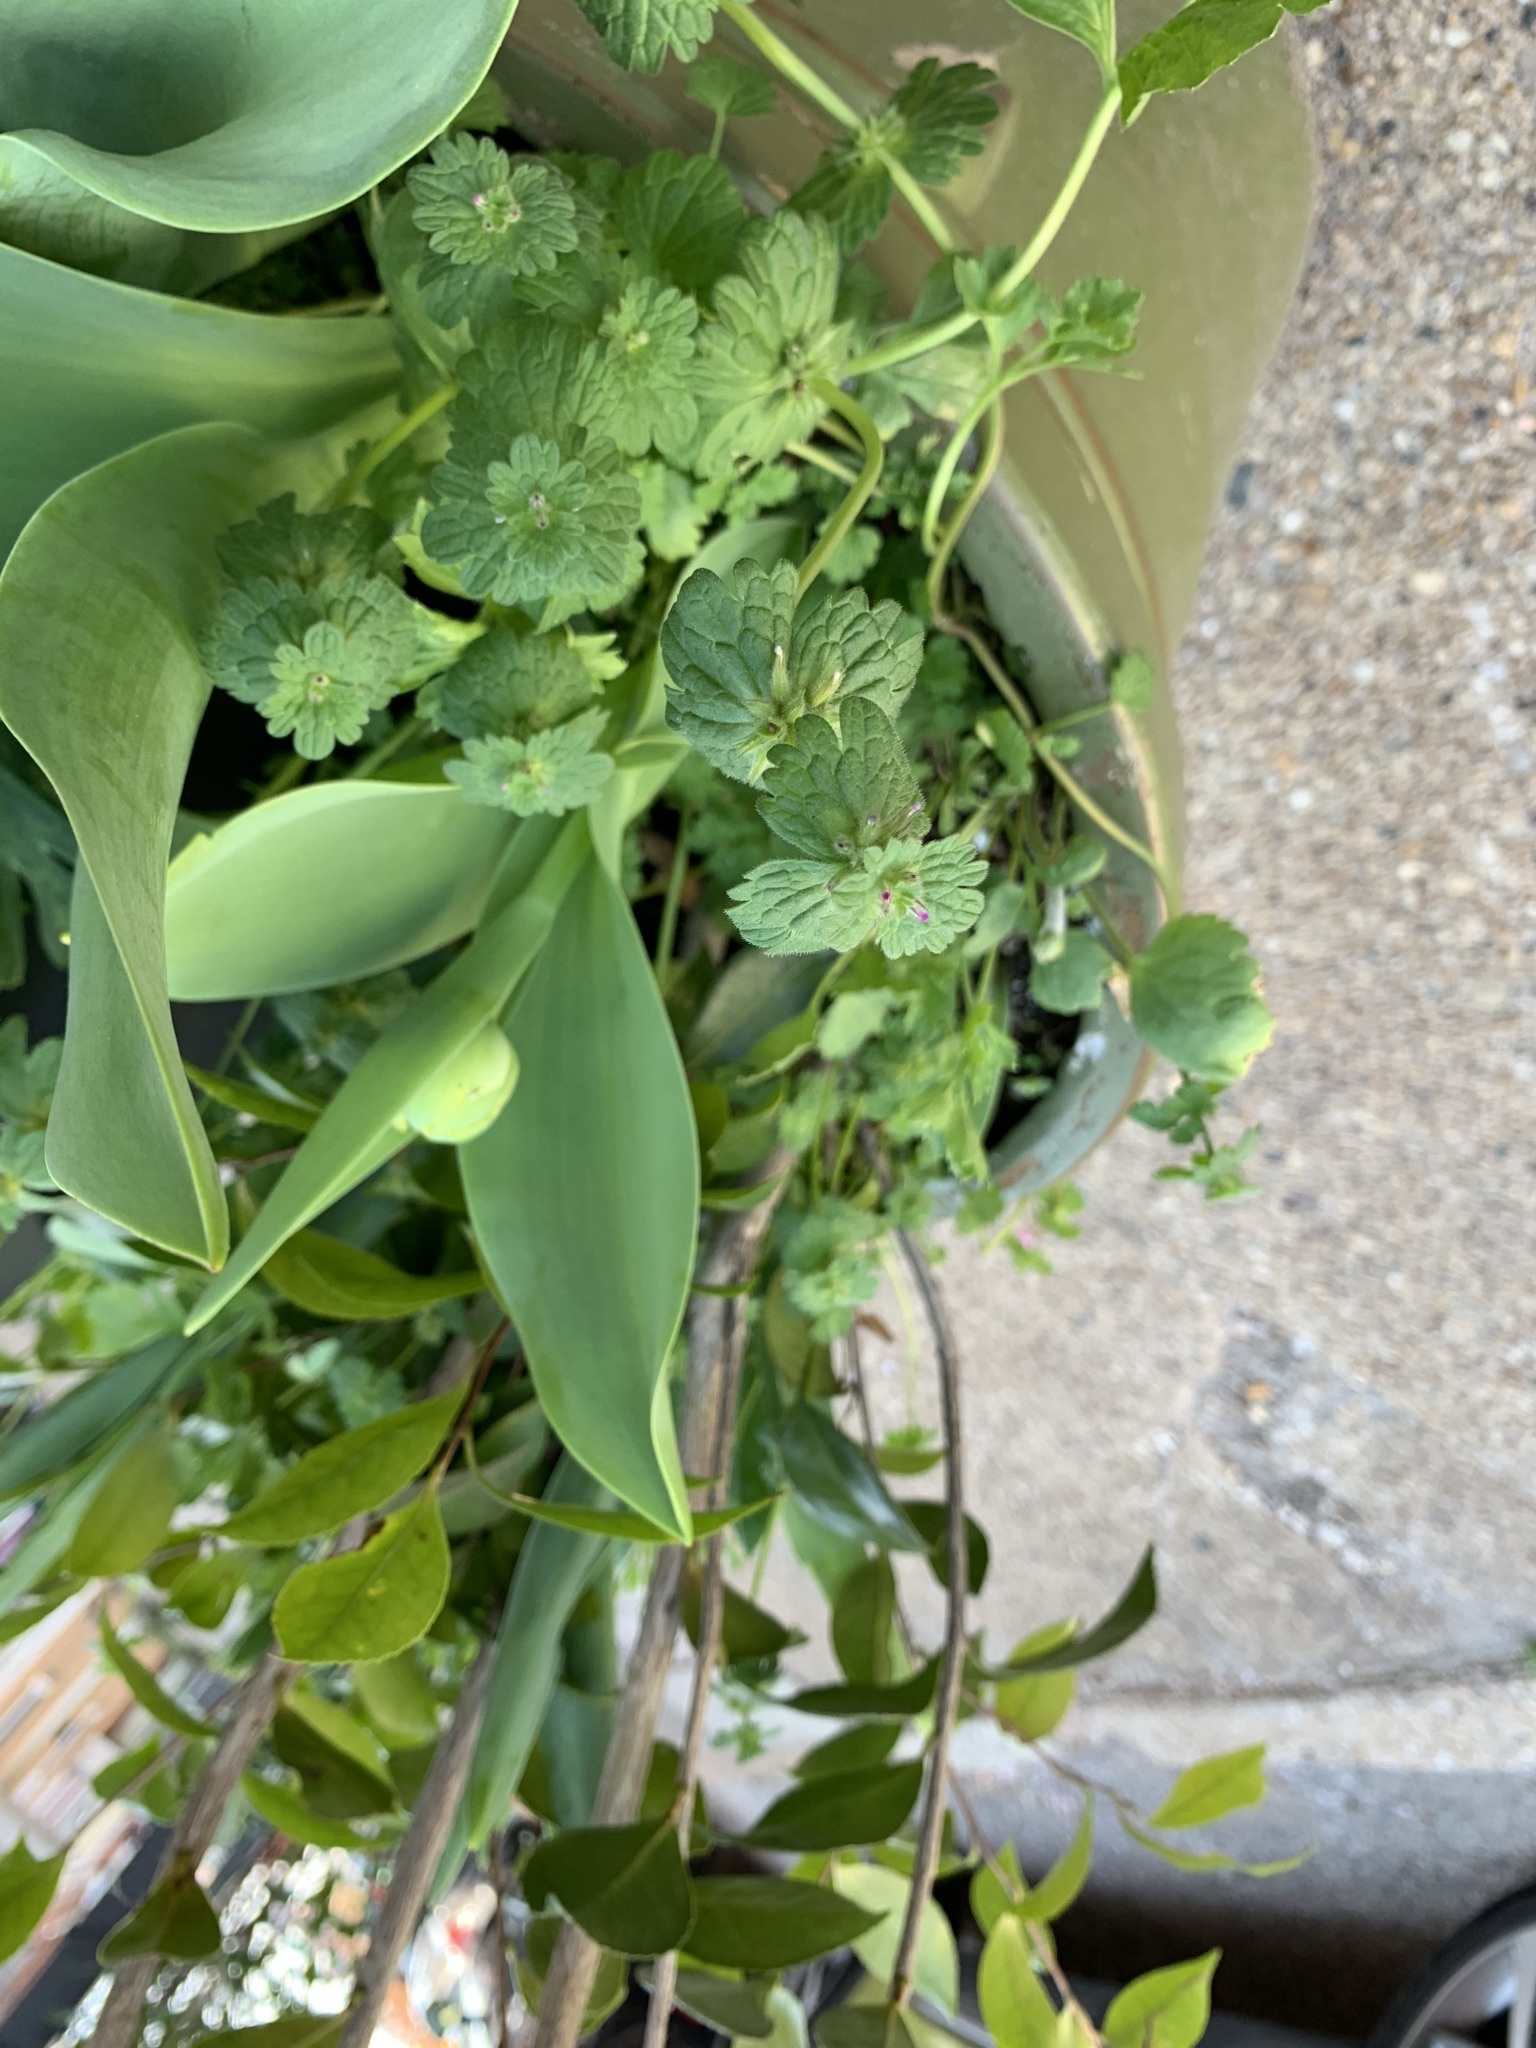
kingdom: Plantae
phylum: Tracheophyta
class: Magnoliopsida
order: Lamiales
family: Lamiaceae
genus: Lamium
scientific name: Lamium amplexicaule
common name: Henbit dead-nettle
